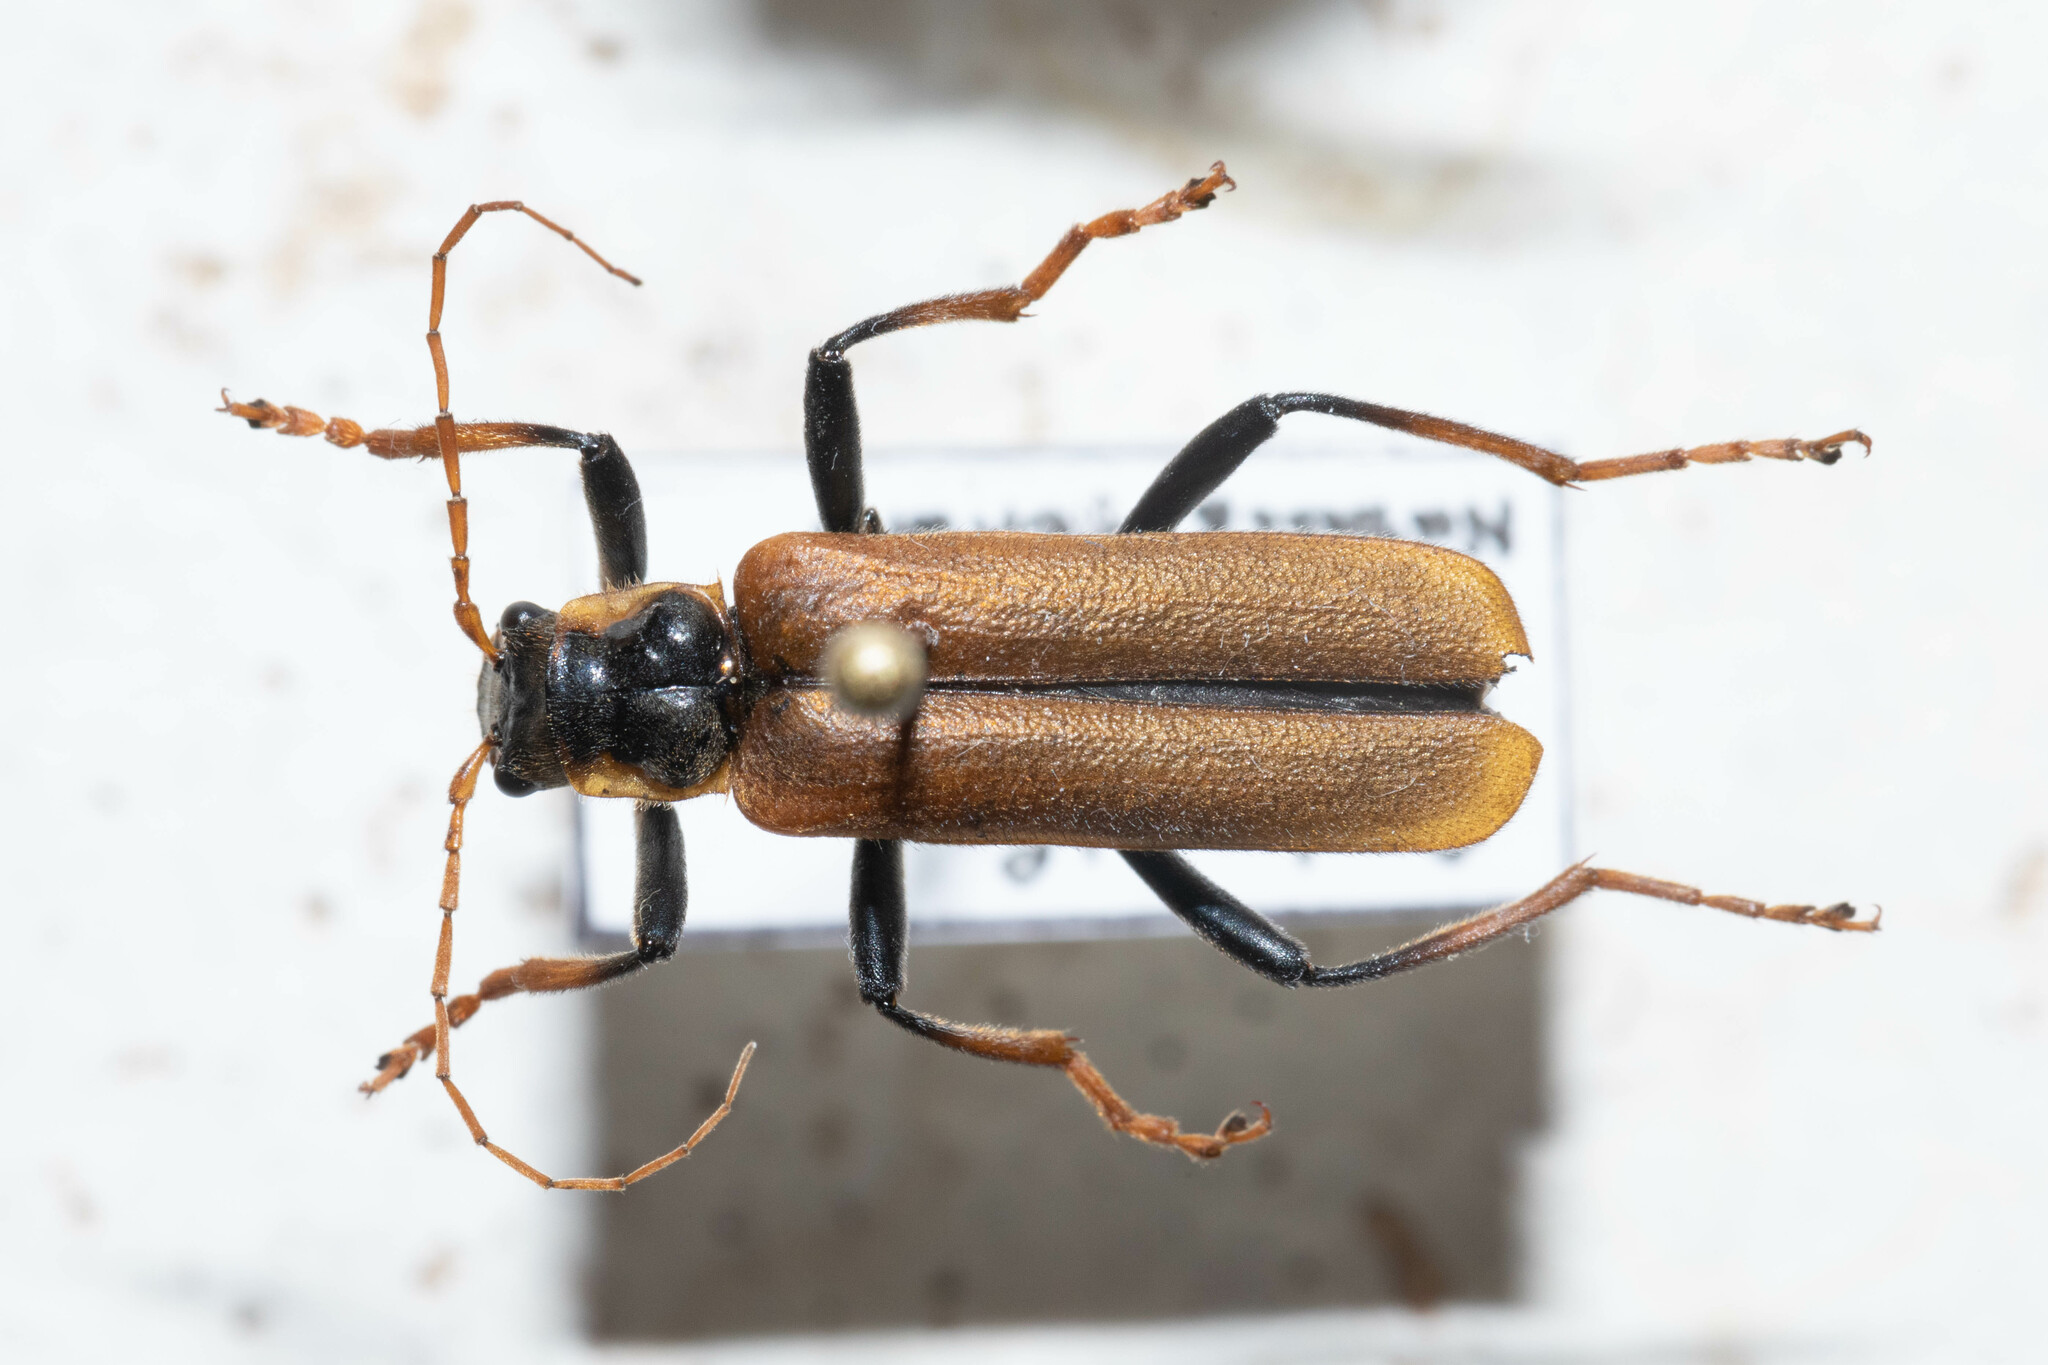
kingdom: Animalia
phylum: Arthropoda
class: Insecta
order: Coleoptera
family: Cantharidae
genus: Lycocerus
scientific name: Lycocerus suturellus
